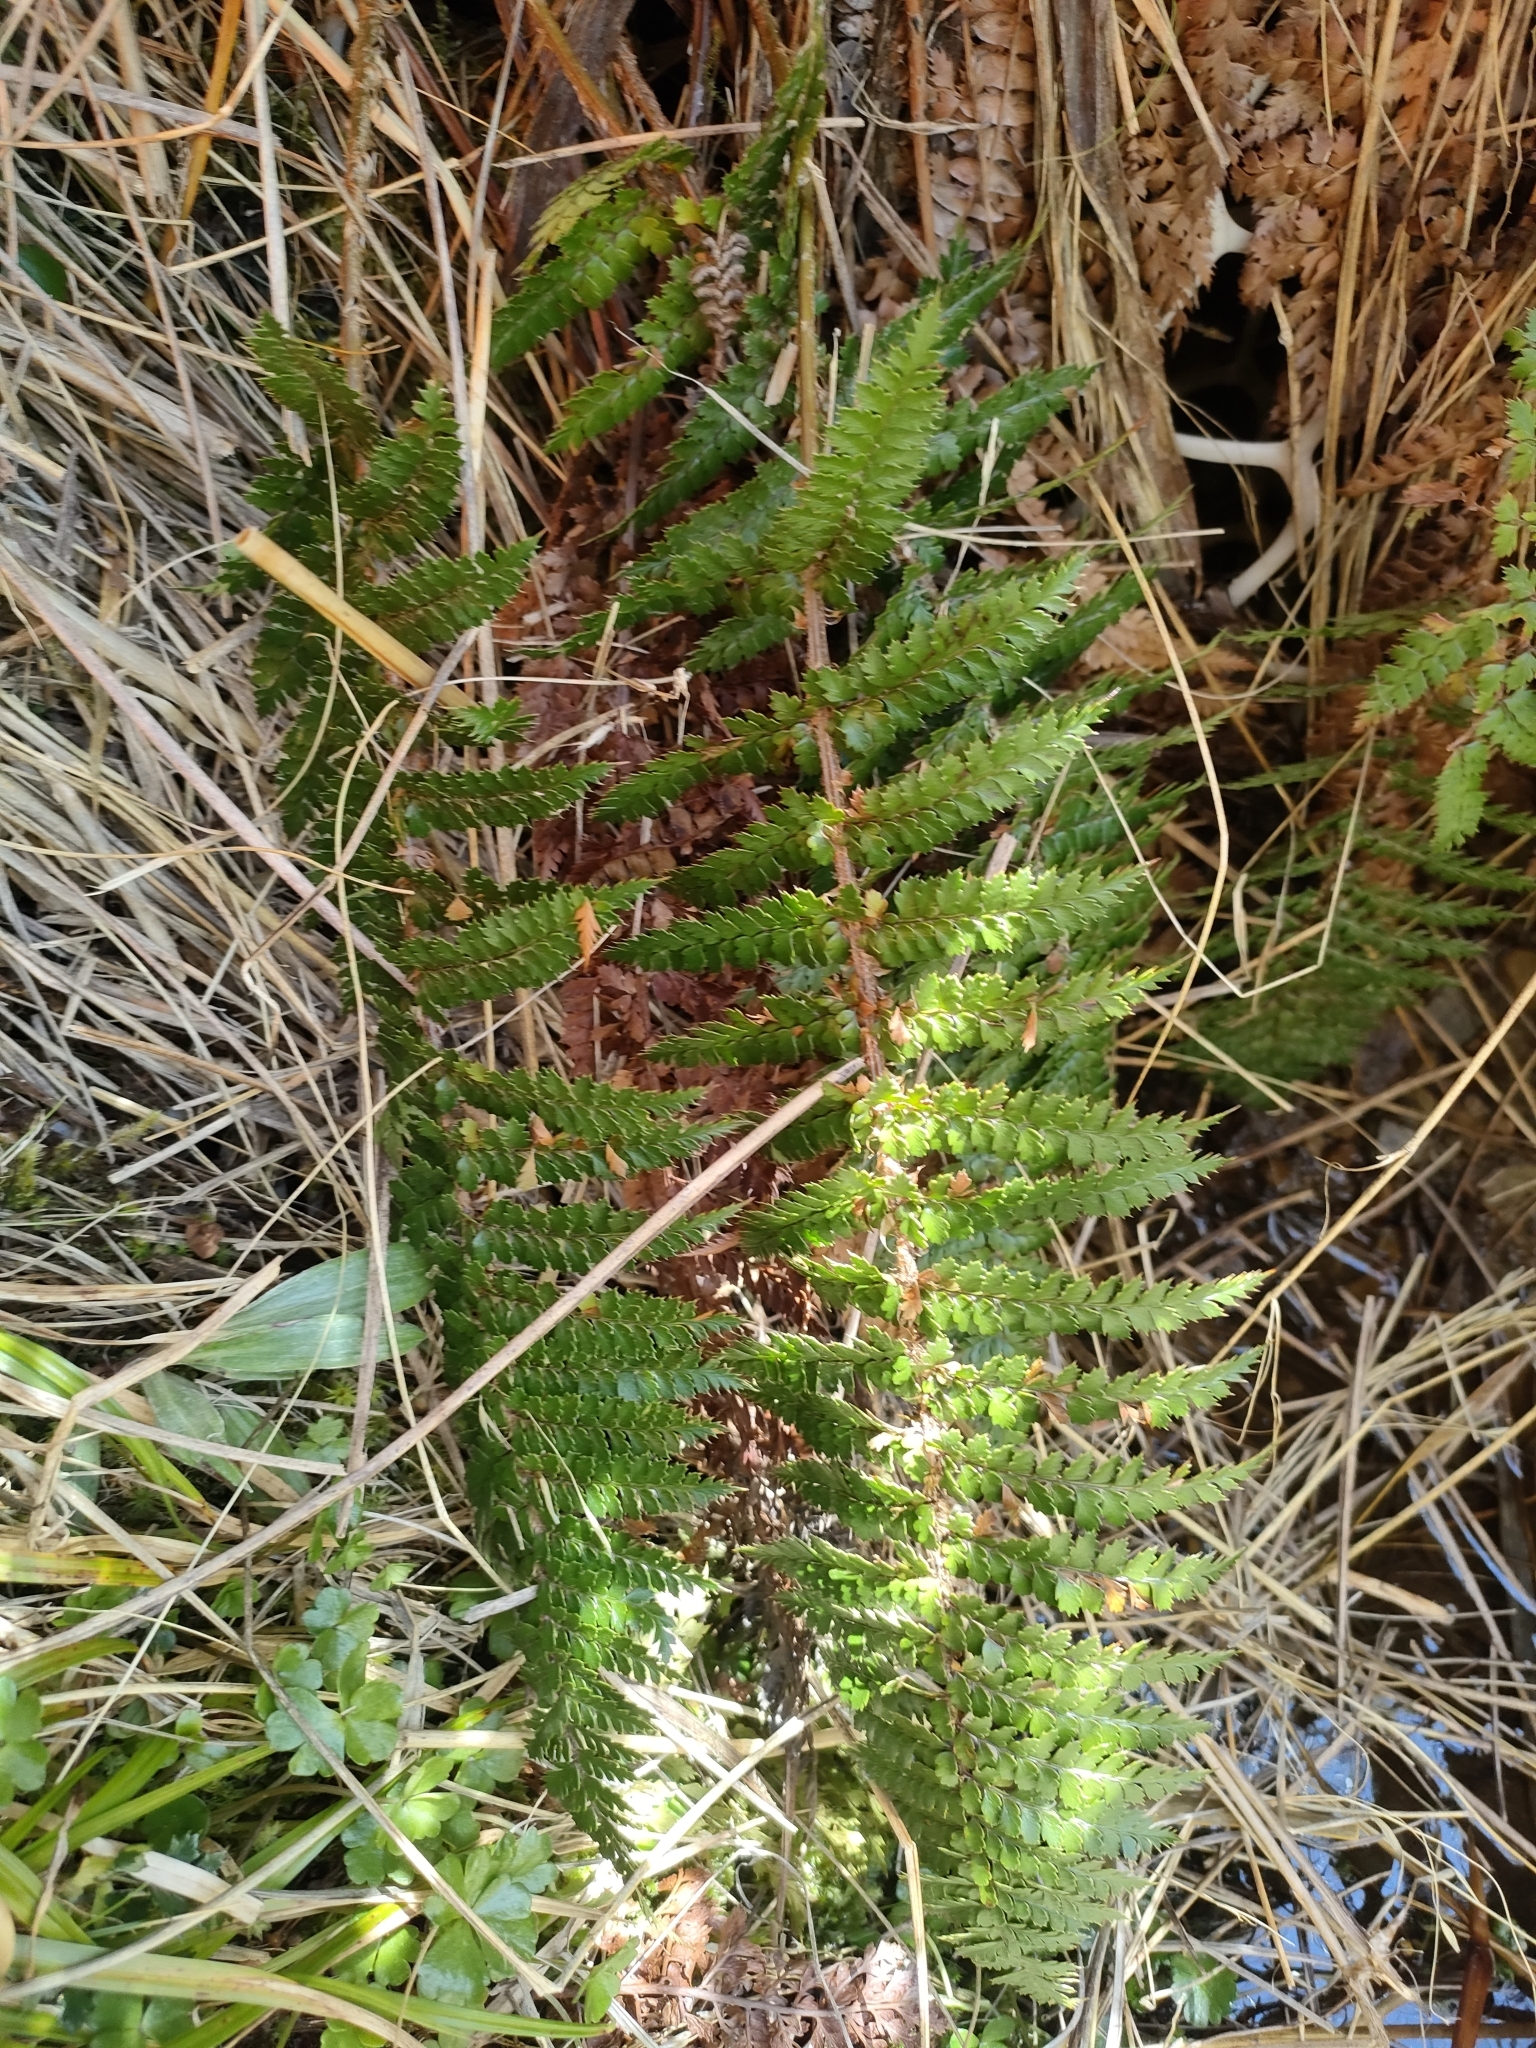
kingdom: Plantae
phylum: Tracheophyta
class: Polypodiopsida
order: Polypodiales
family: Dryopteridaceae
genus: Polystichum
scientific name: Polystichum vestitum
